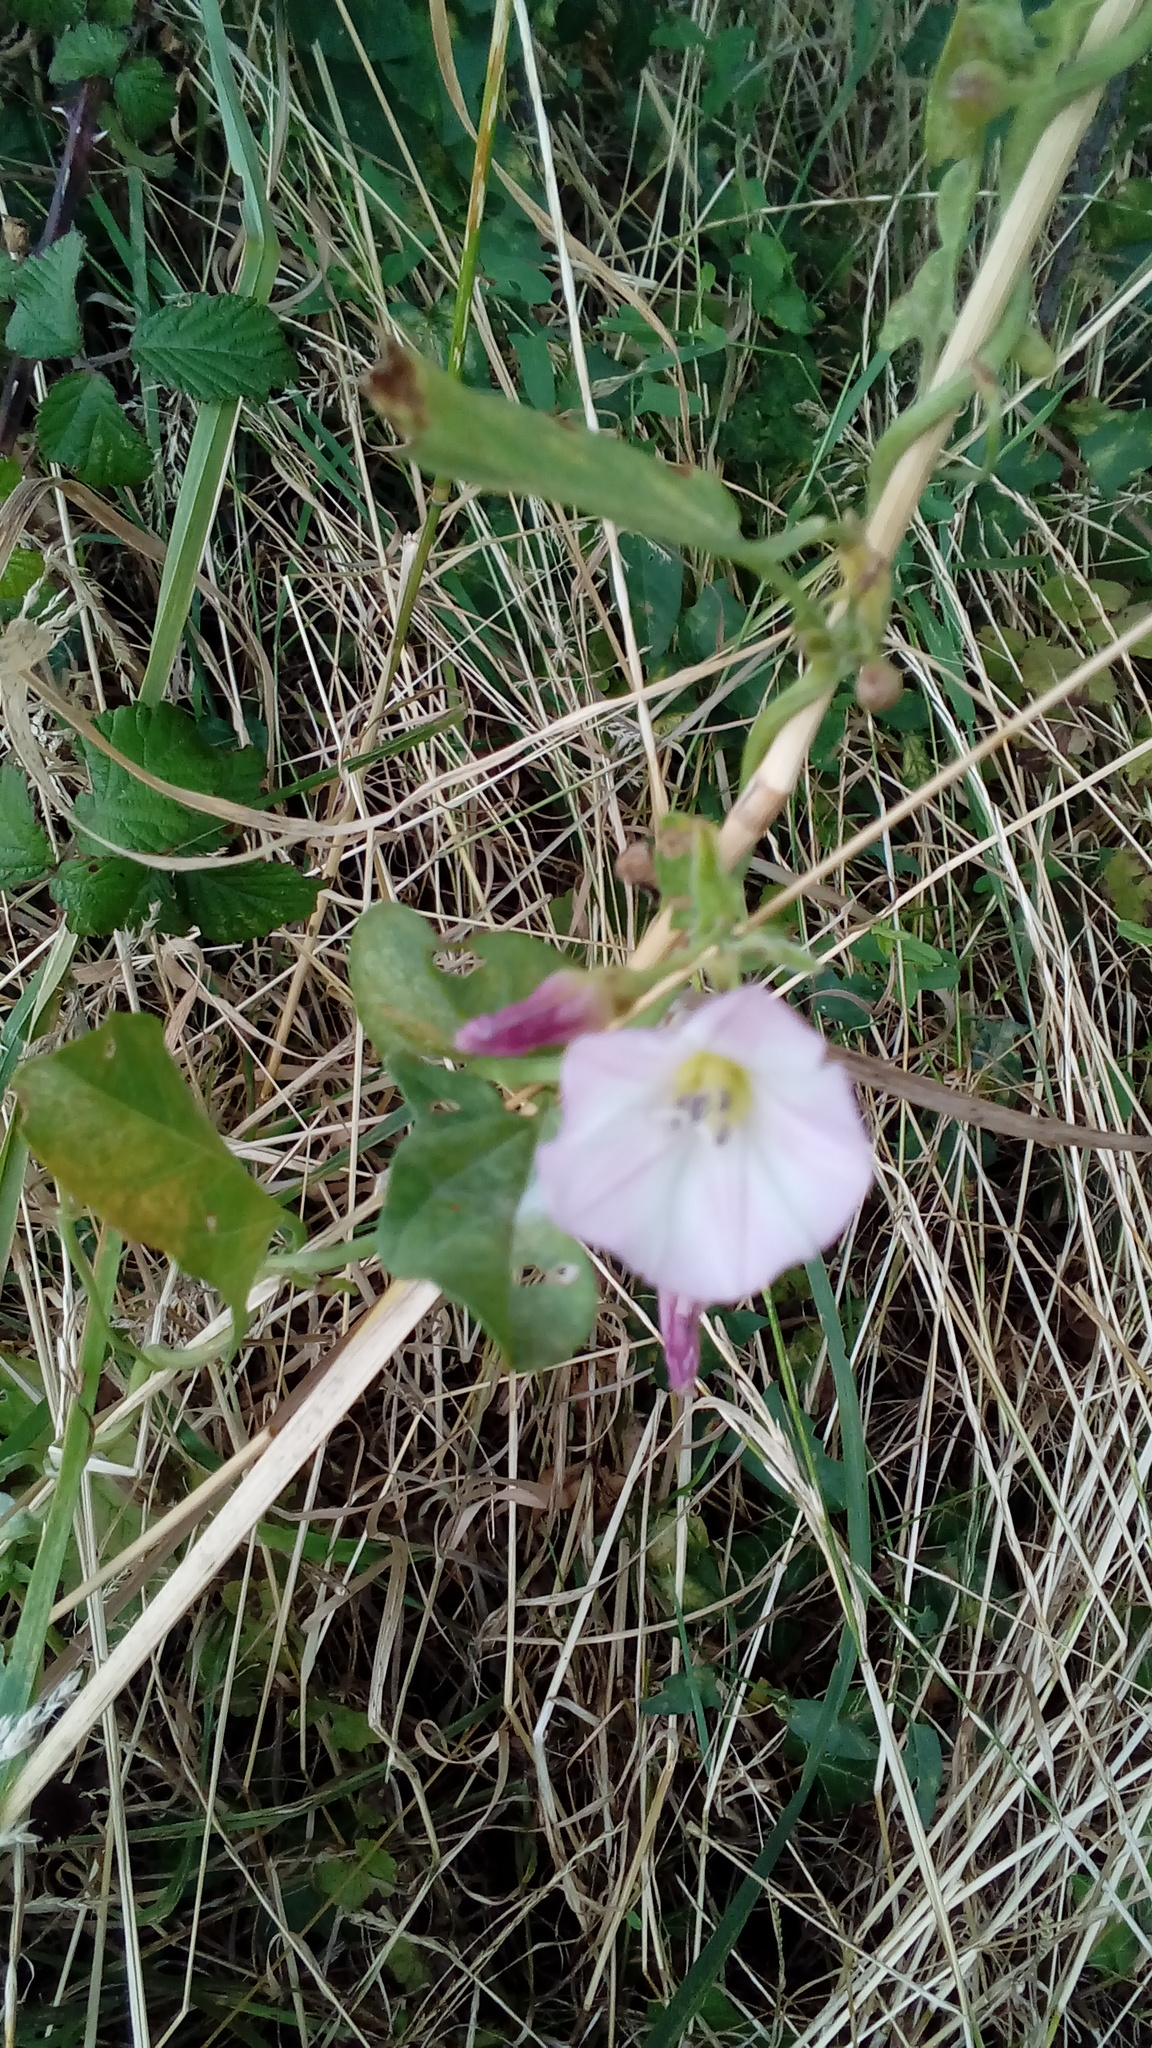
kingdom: Plantae
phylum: Tracheophyta
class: Magnoliopsida
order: Solanales
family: Convolvulaceae
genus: Convolvulus
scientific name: Convolvulus arvensis
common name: Field bindweed
